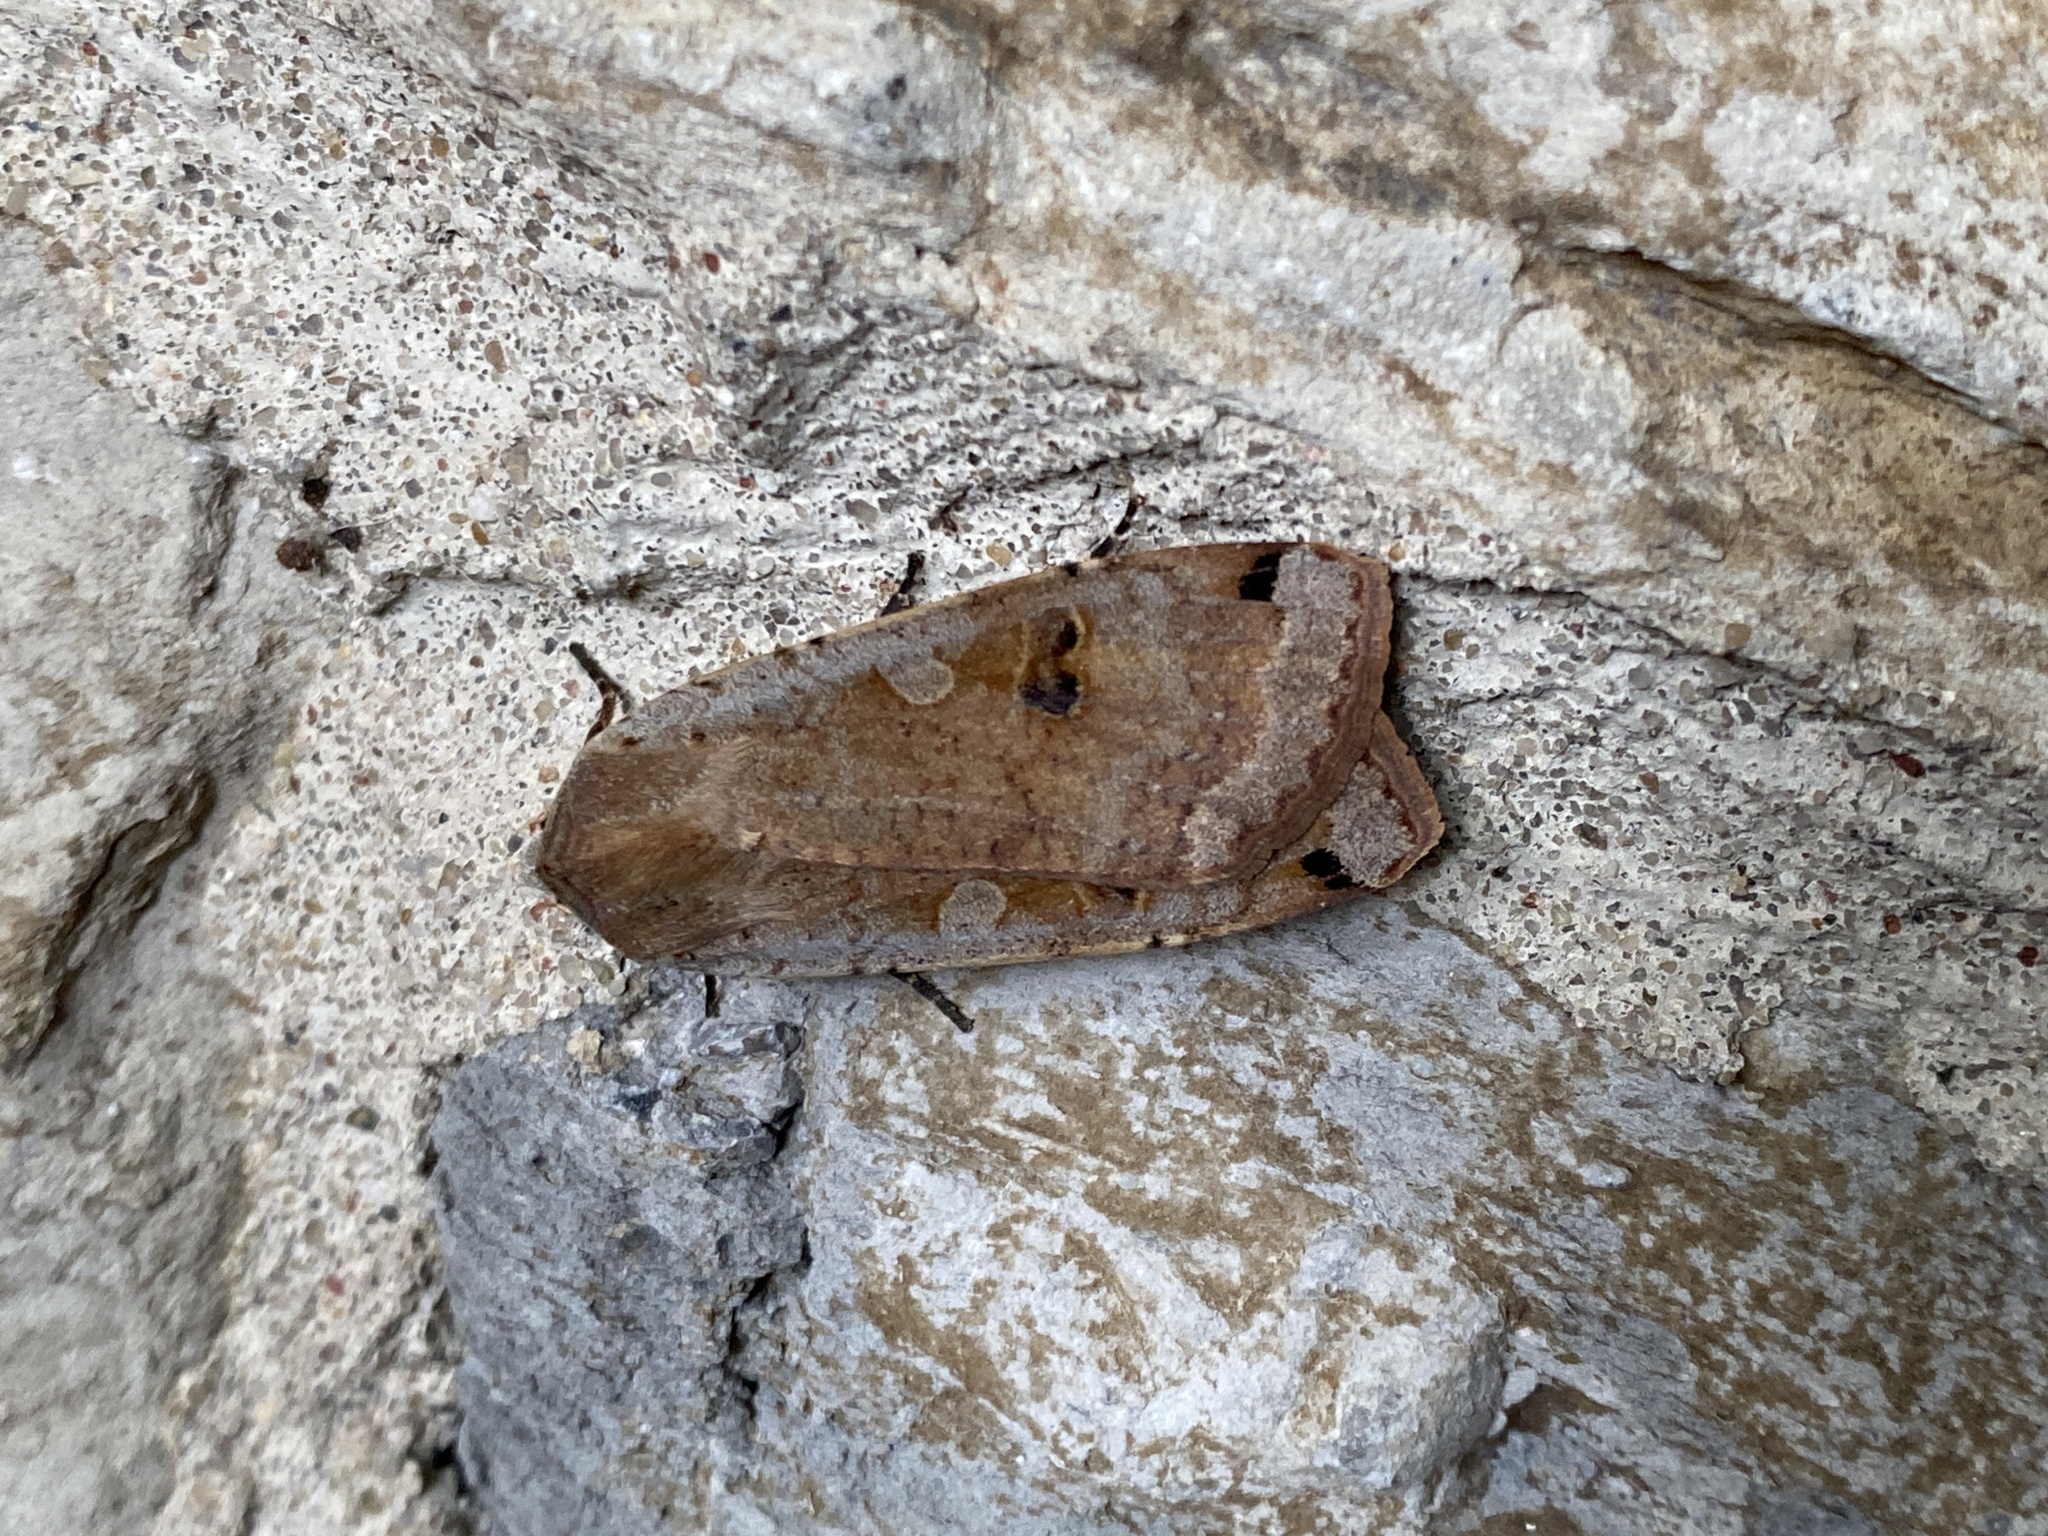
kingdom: Animalia
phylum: Arthropoda
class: Insecta
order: Lepidoptera
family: Noctuidae
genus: Noctua
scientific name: Noctua pronuba
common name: Large yellow underwing
